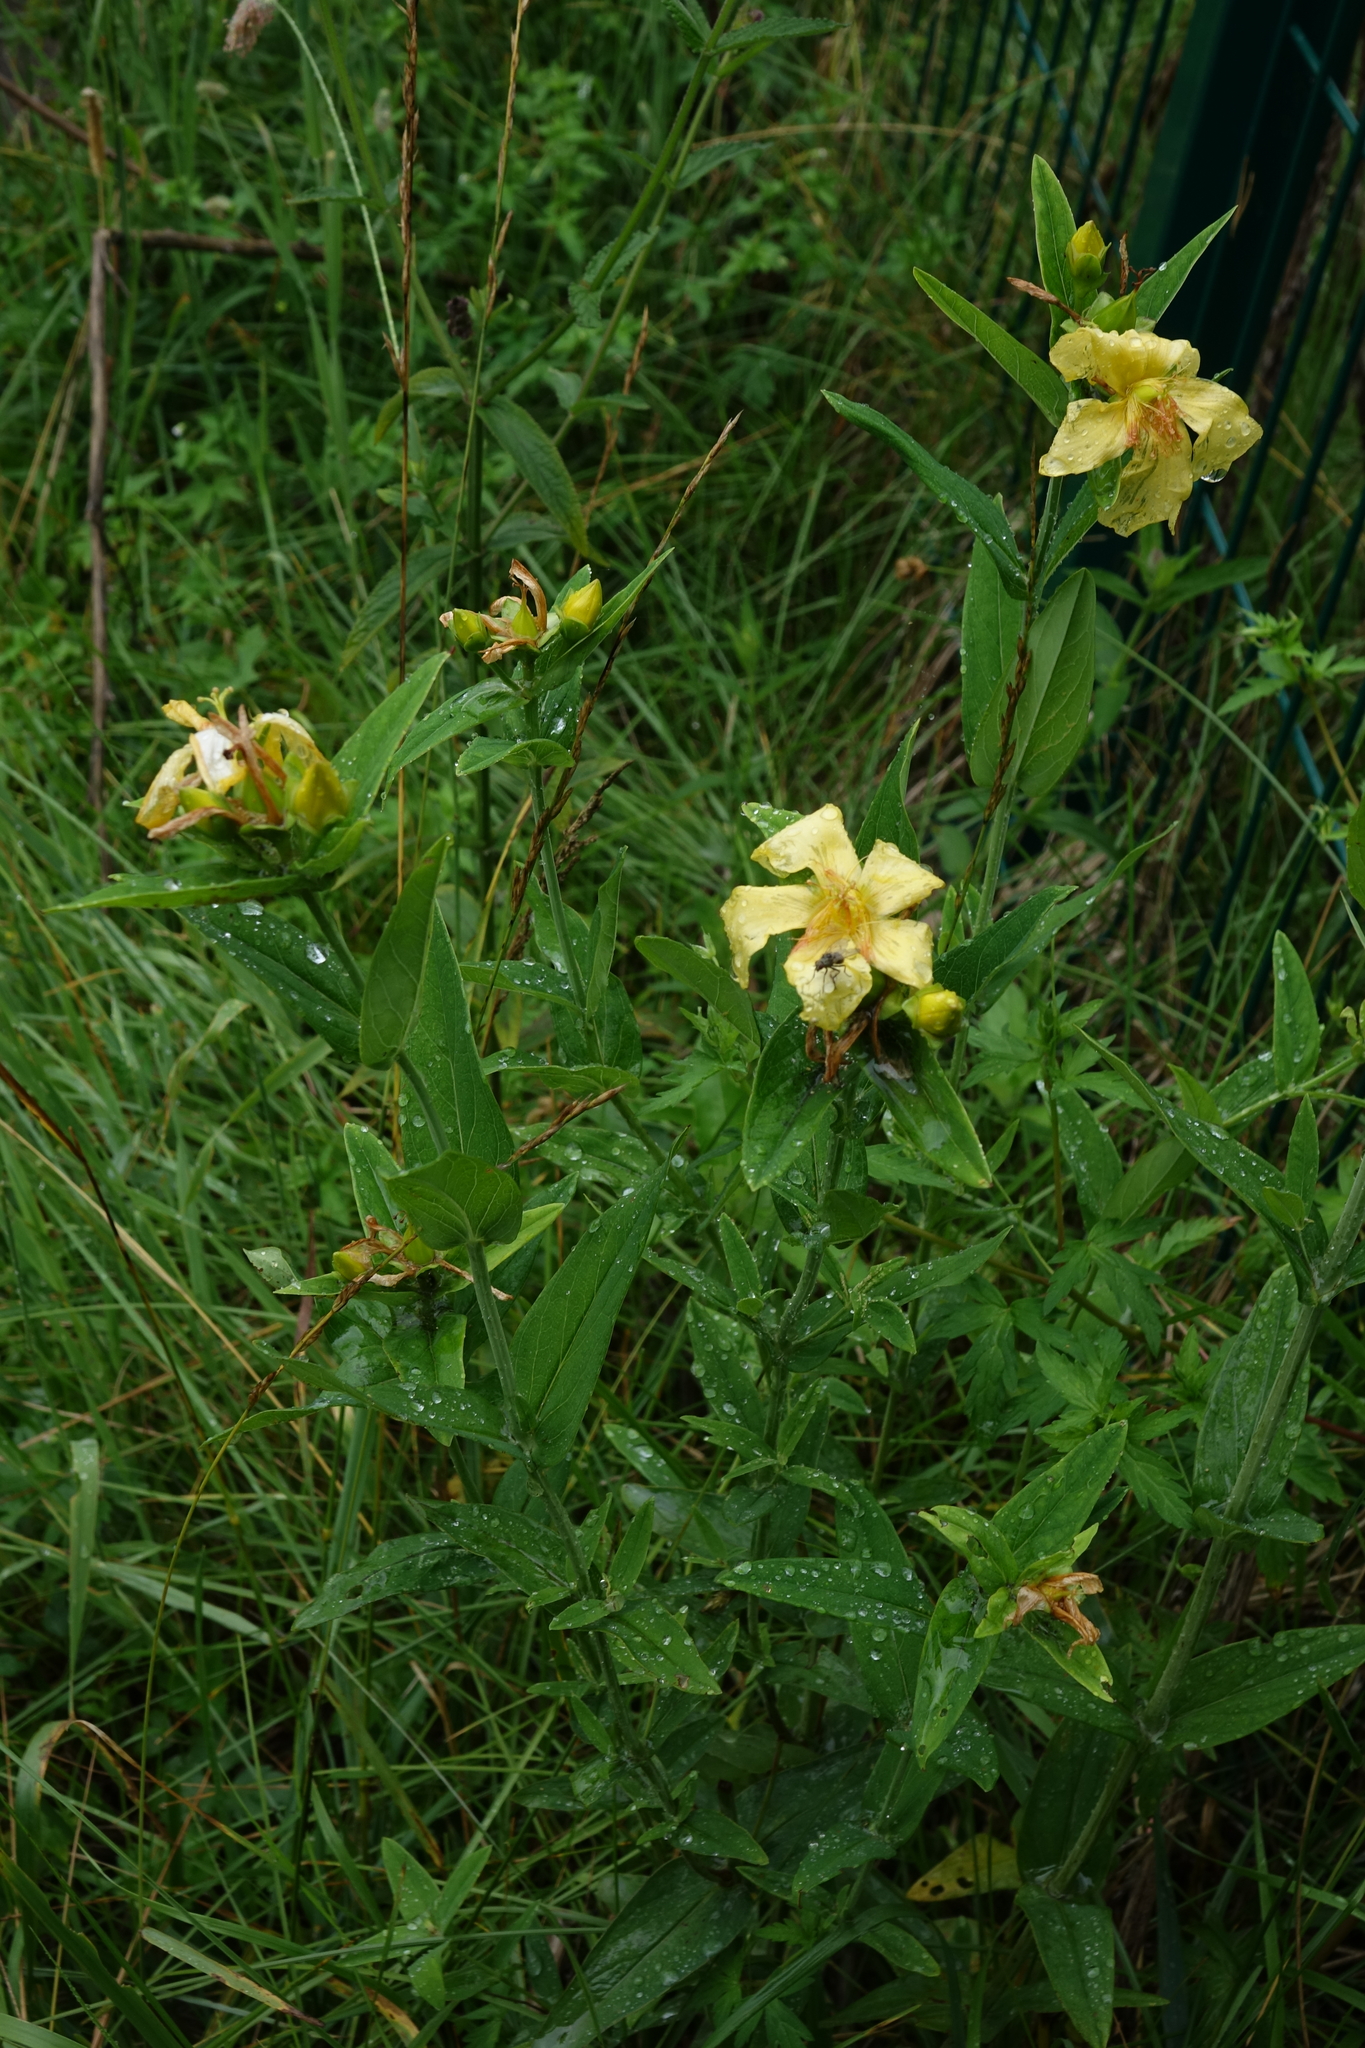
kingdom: Plantae
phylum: Tracheophyta
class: Magnoliopsida
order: Malpighiales
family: Hypericaceae
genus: Hypericum
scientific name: Hypericum ascyron
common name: Giant st. john's-wort
